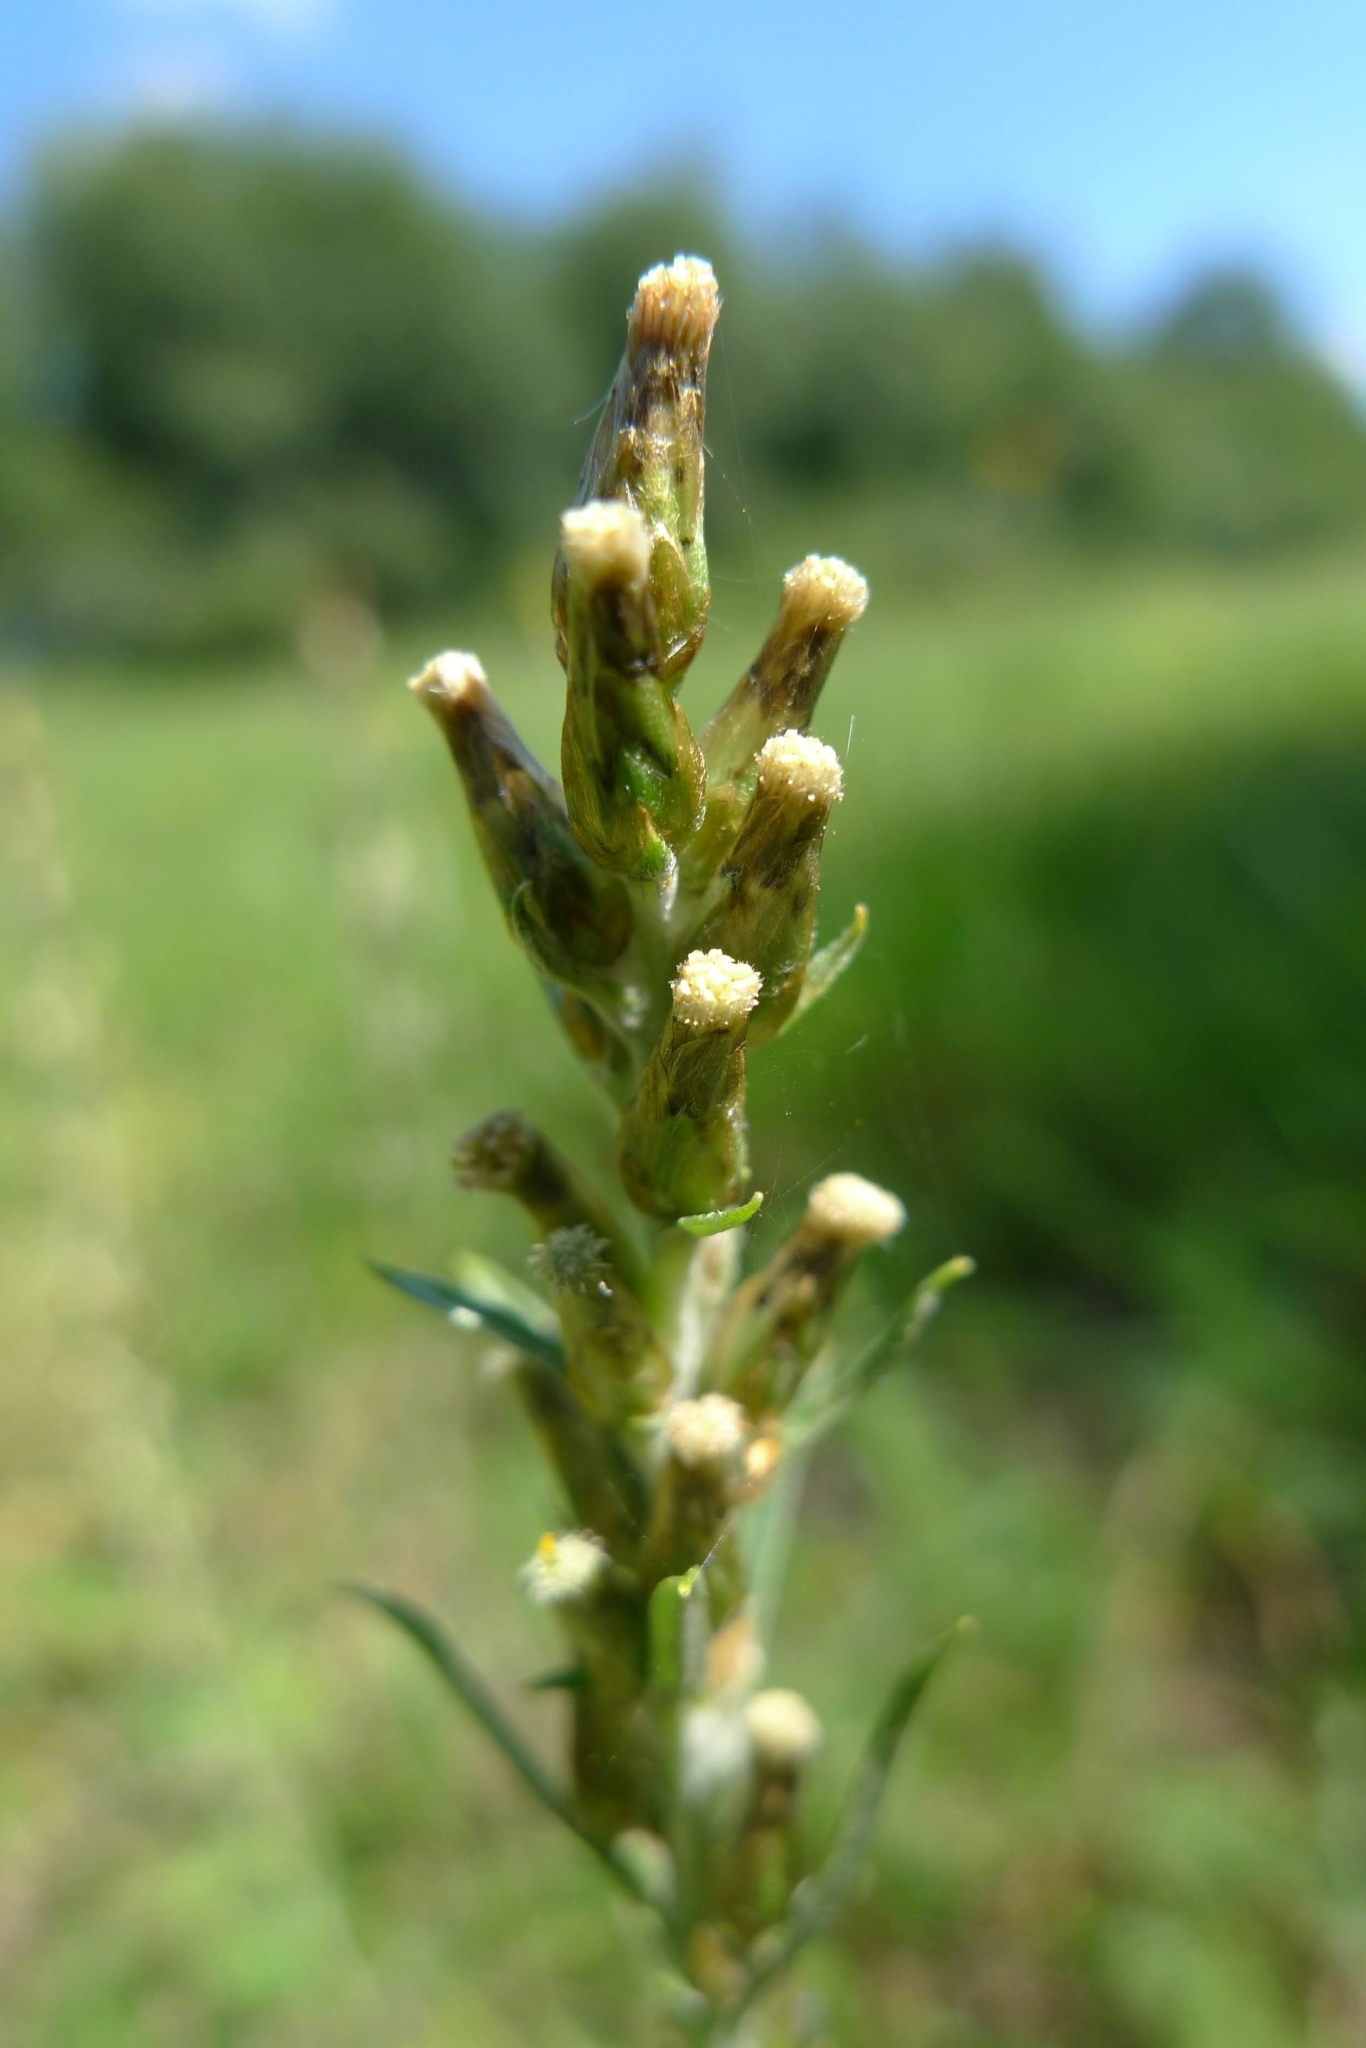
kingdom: Plantae
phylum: Tracheophyta
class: Magnoliopsida
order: Asterales
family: Asteraceae
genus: Omalotheca
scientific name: Omalotheca sylvatica
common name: Heath cudweed
